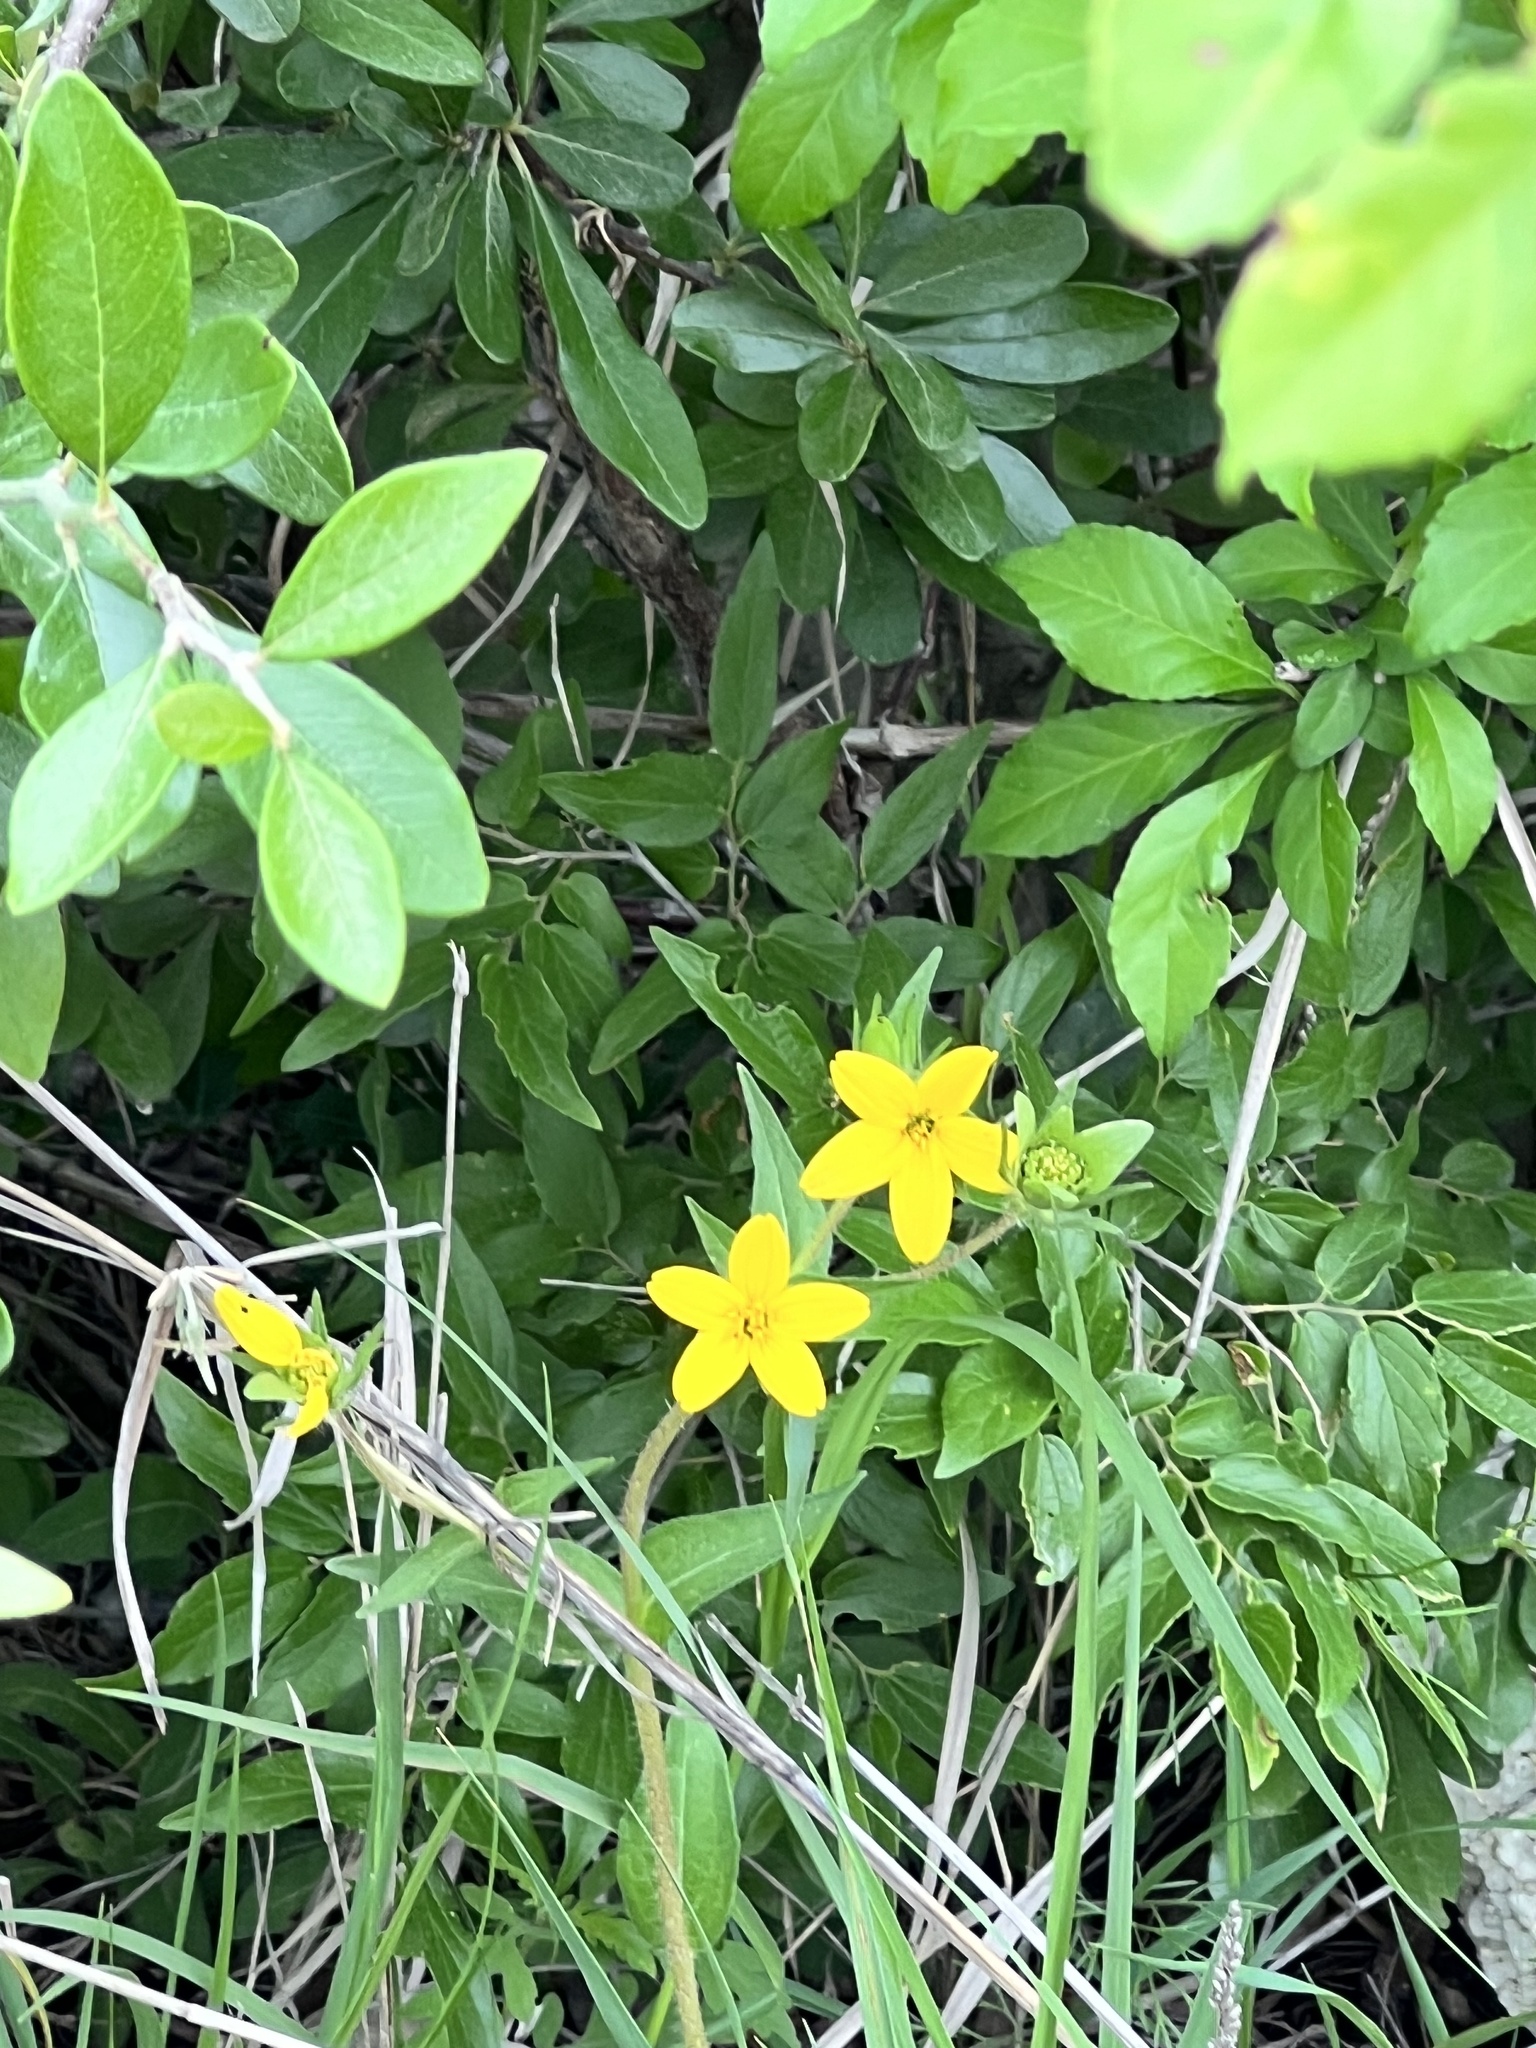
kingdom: Plantae
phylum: Tracheophyta
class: Magnoliopsida
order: Asterales
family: Asteraceae
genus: Lindheimera
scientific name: Lindheimera texana
